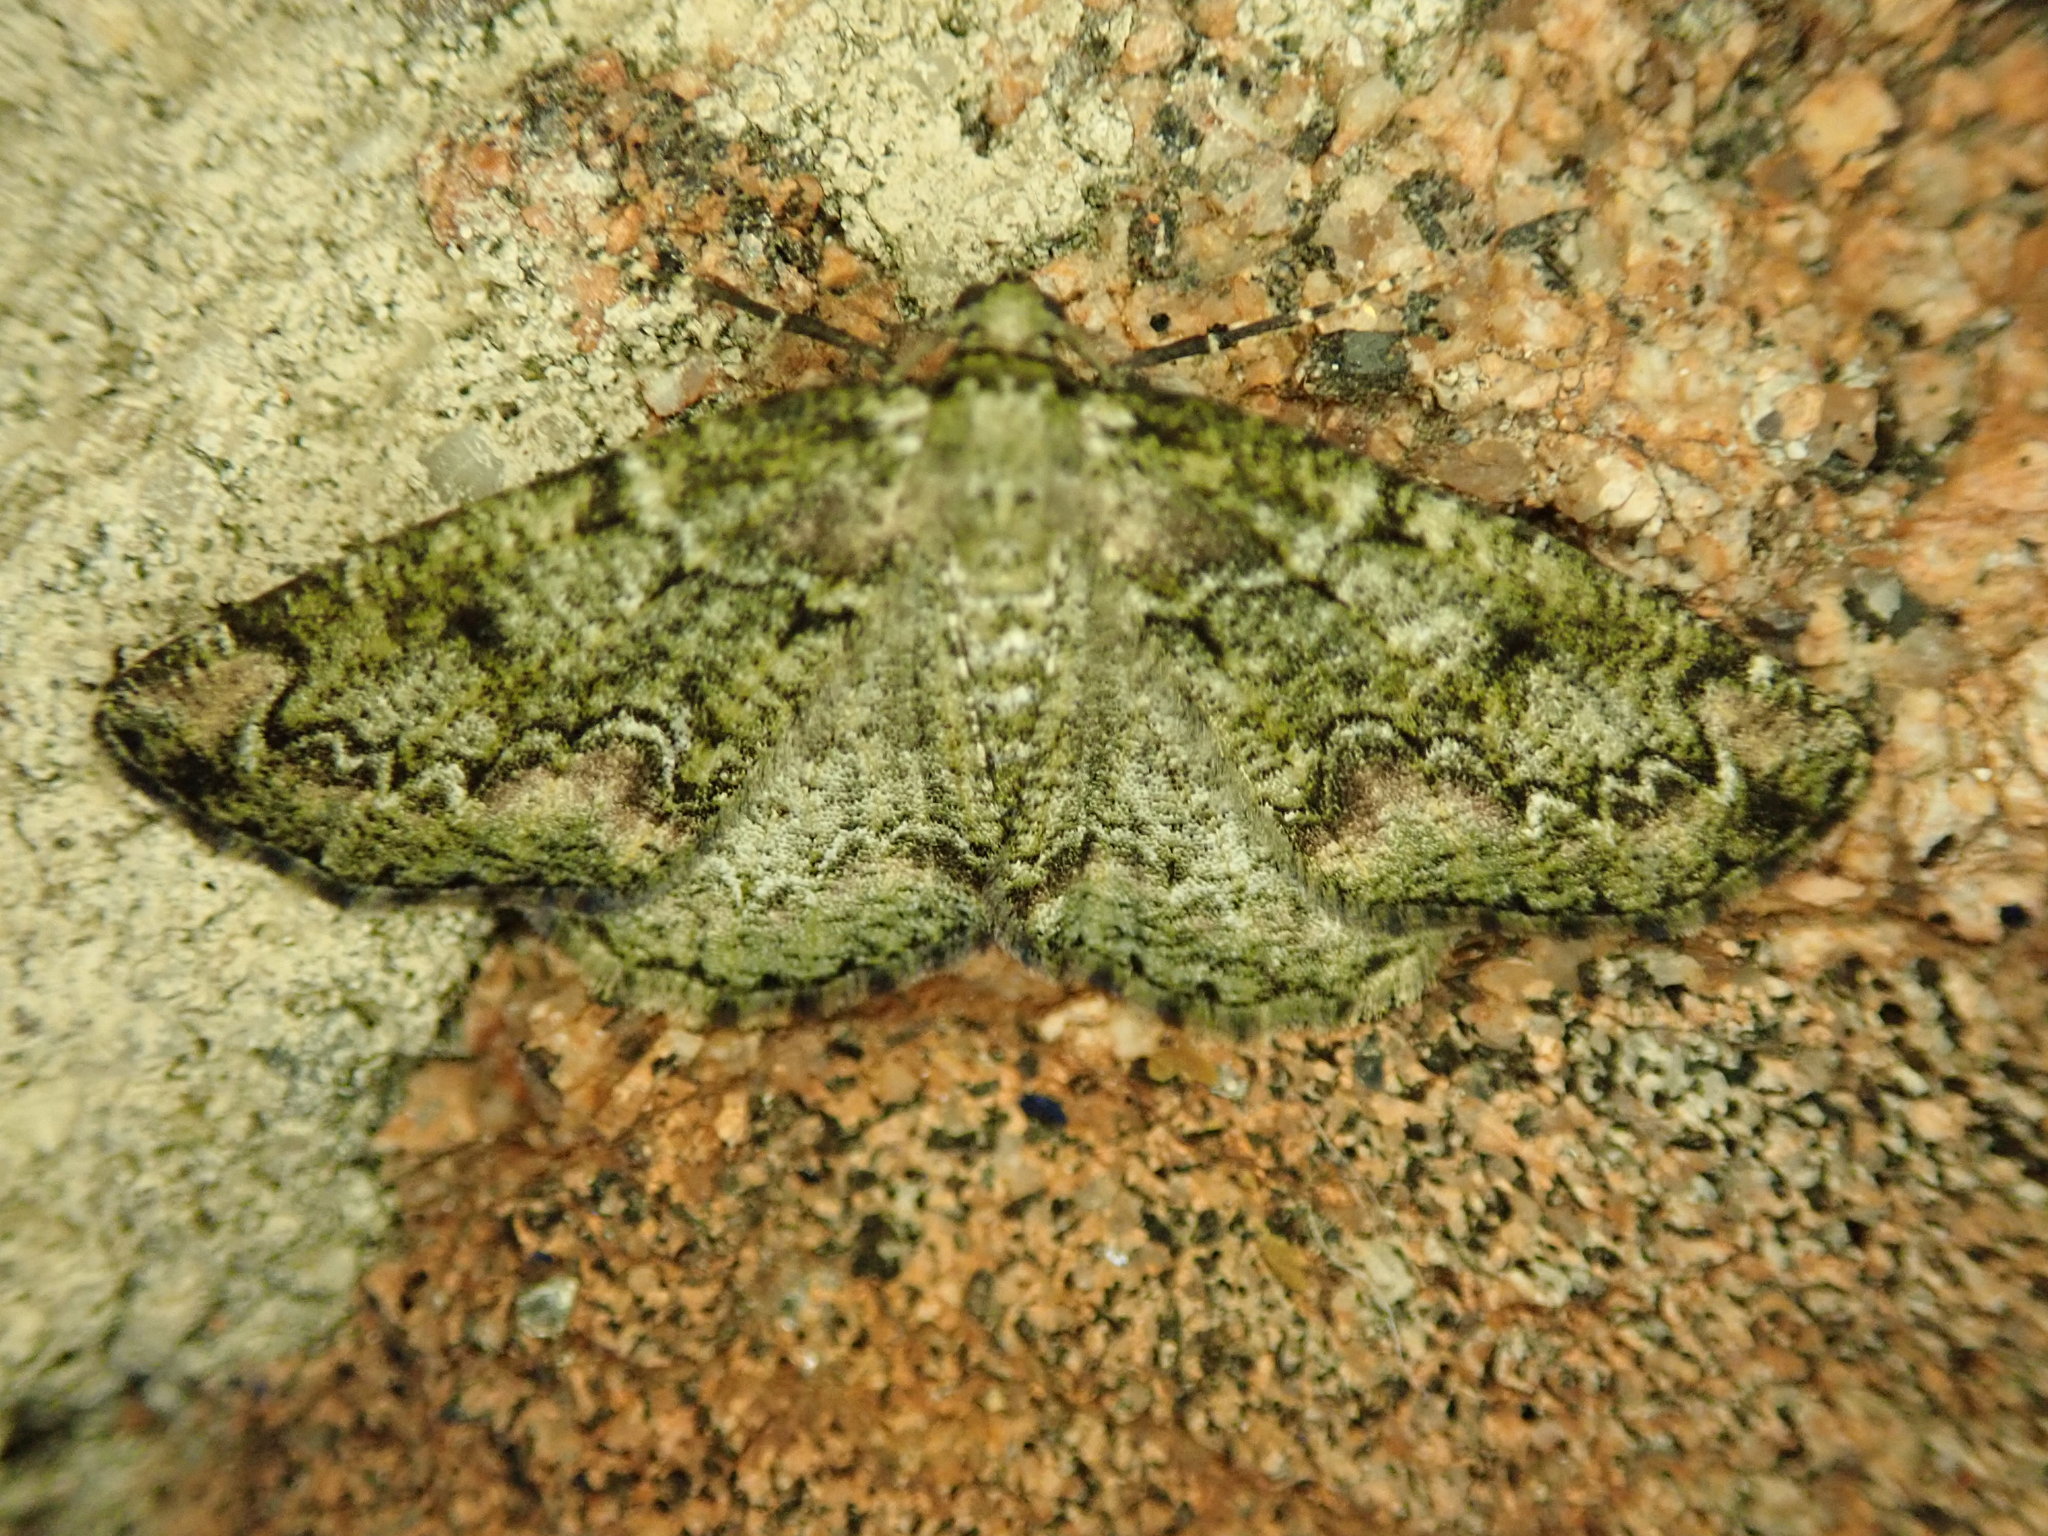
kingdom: Animalia
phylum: Arthropoda
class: Insecta
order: Lepidoptera
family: Geometridae
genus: Cleorodes
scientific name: Cleorodes lichenaria
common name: Brussels lace
